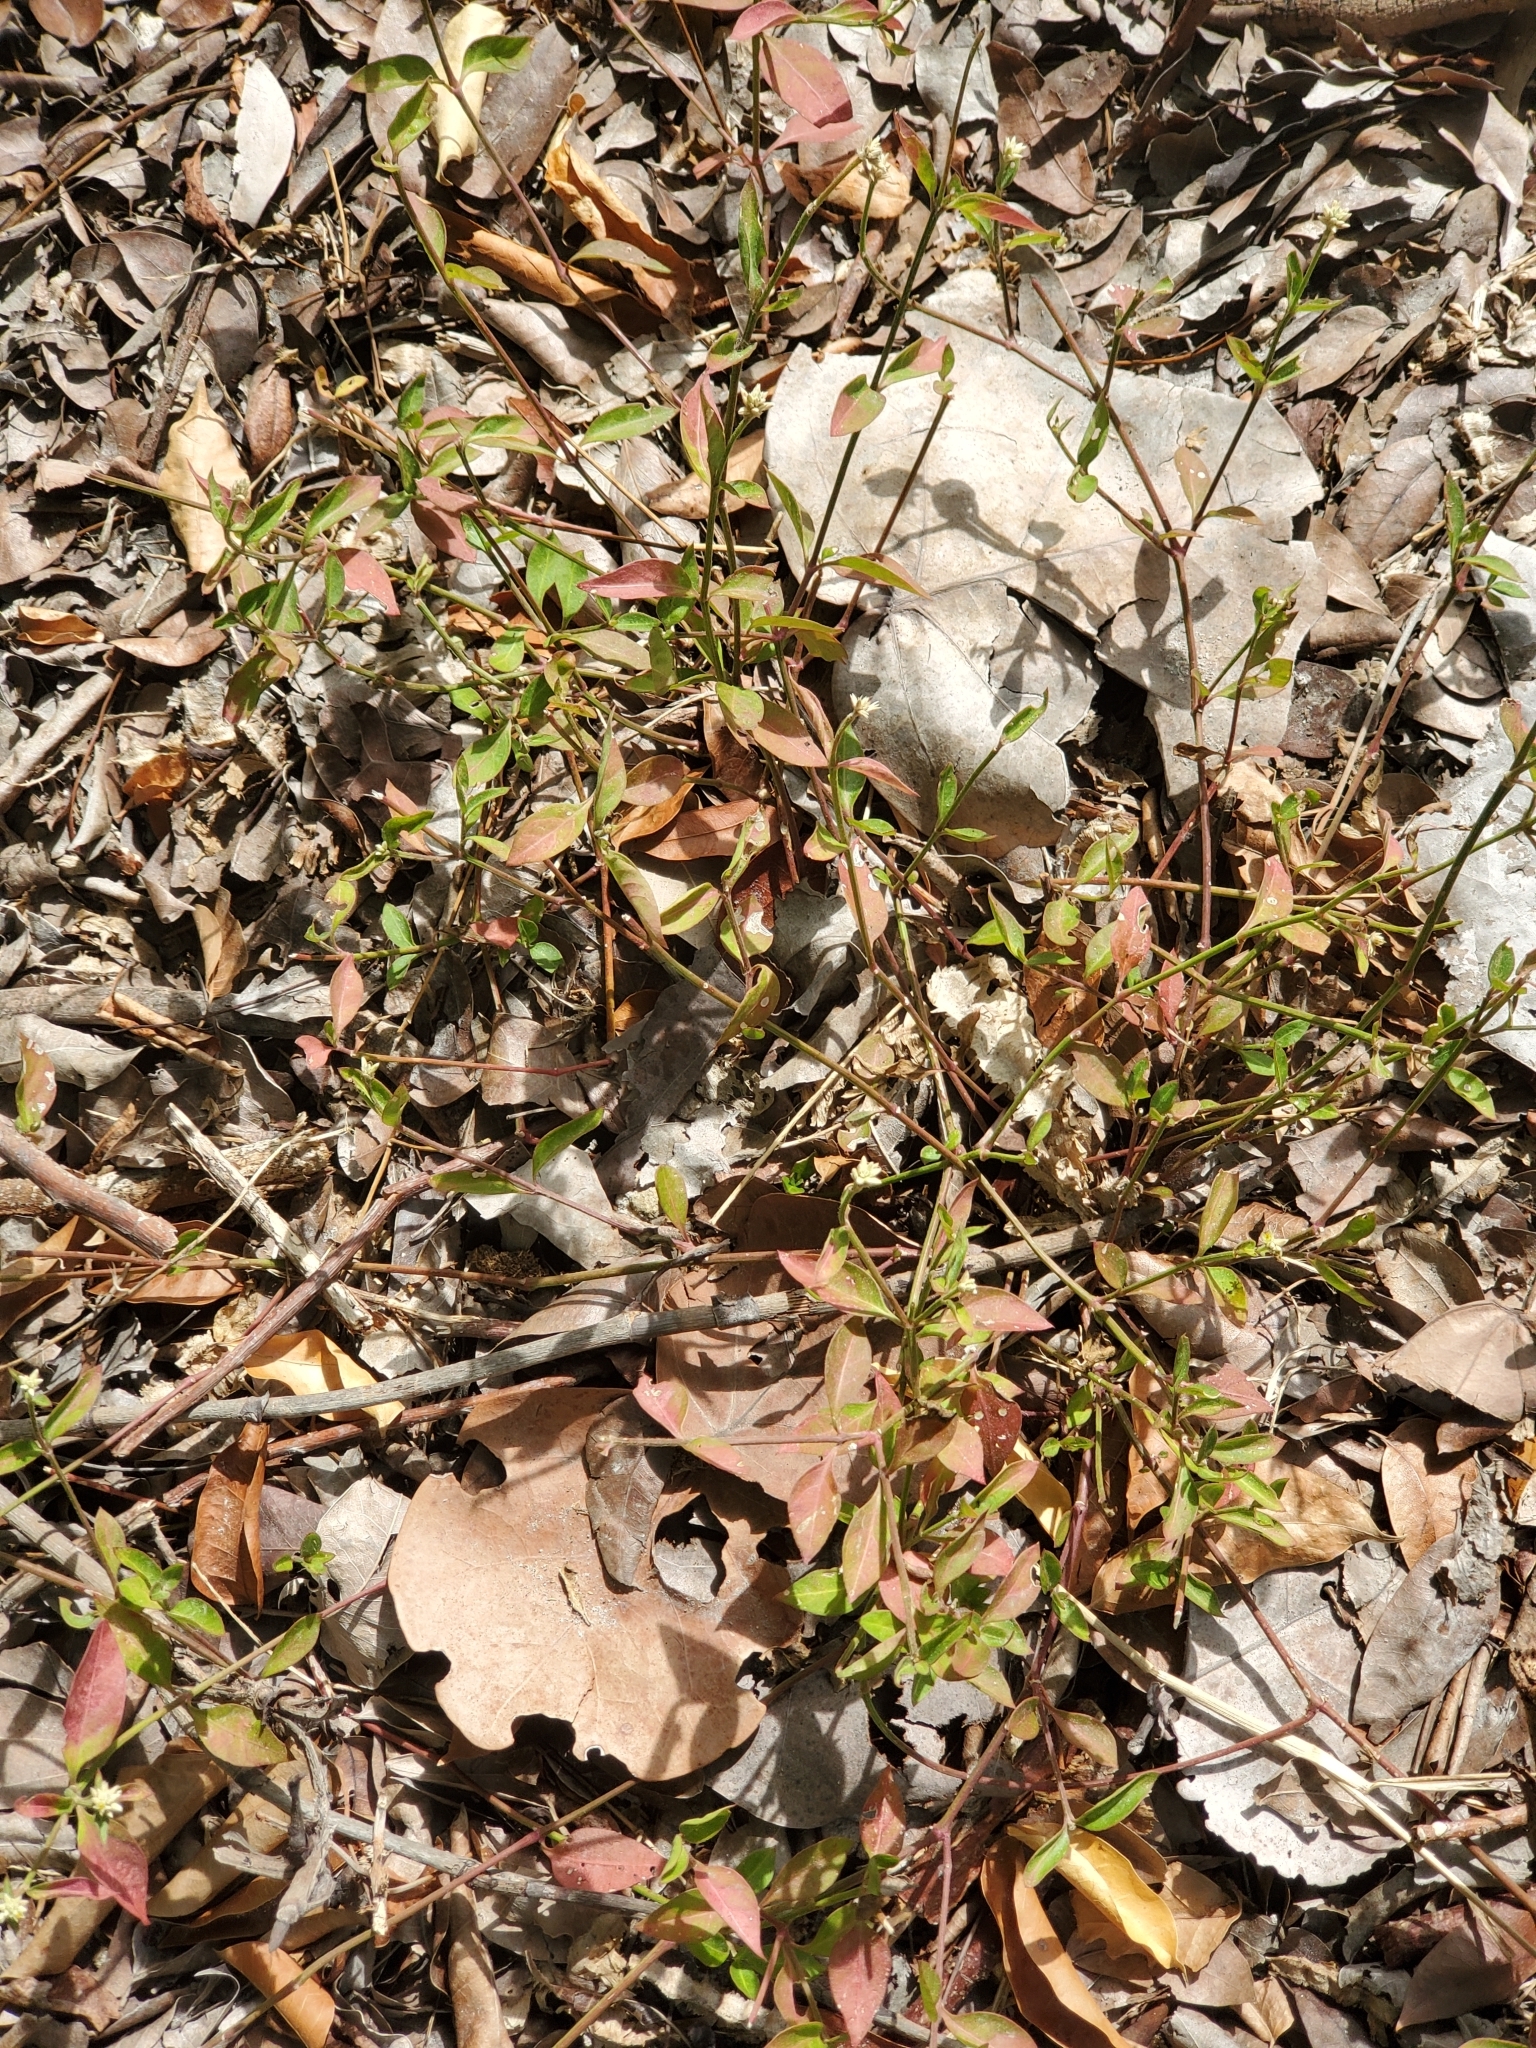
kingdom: Plantae
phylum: Tracheophyta
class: Magnoliopsida
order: Caryophyllales
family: Amaranthaceae
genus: Alternanthera
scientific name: Alternanthera flavescens
